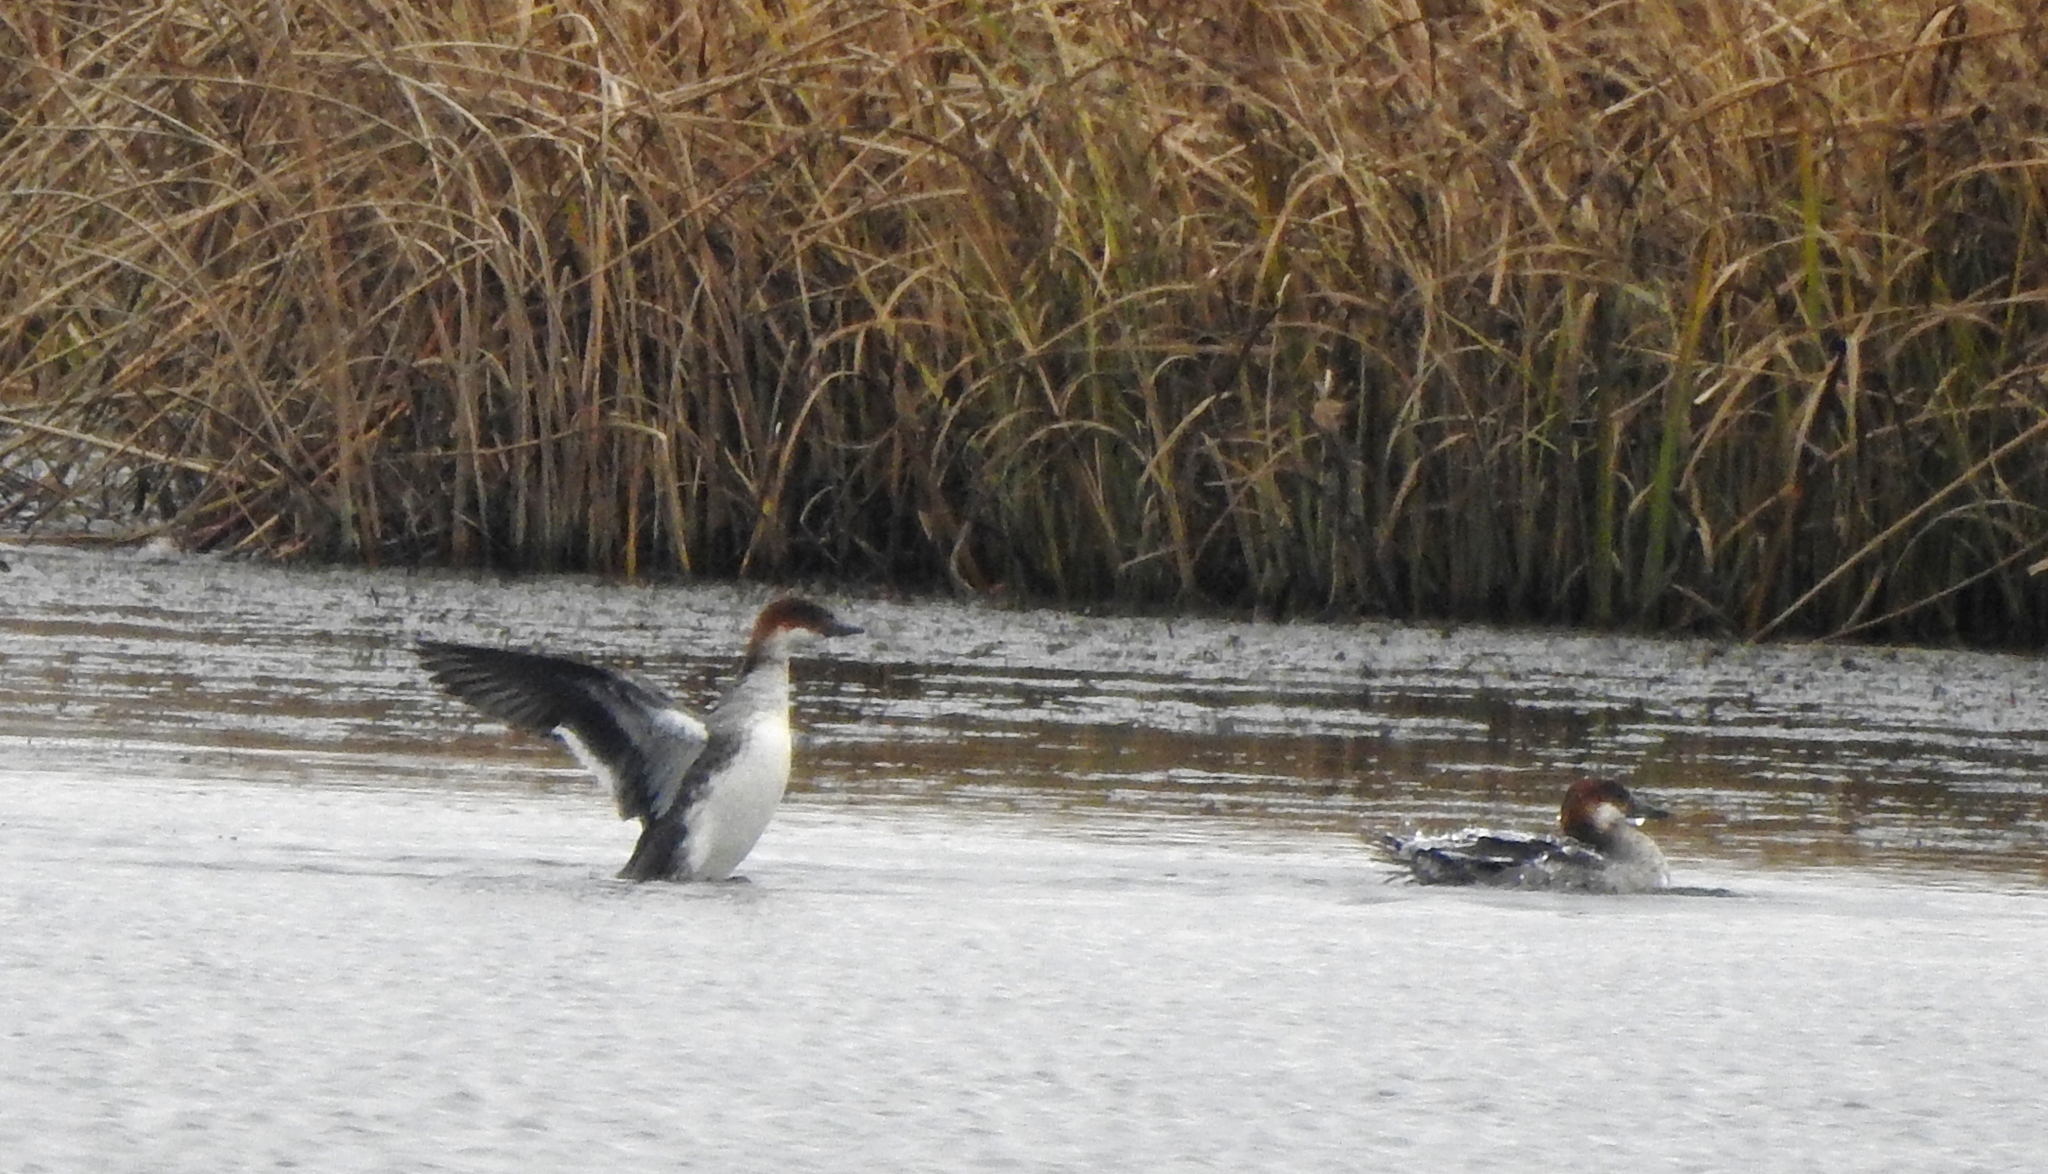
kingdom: Animalia
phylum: Chordata
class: Aves
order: Anseriformes
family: Anatidae
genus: Mergellus
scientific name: Mergellus albellus
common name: Smew
